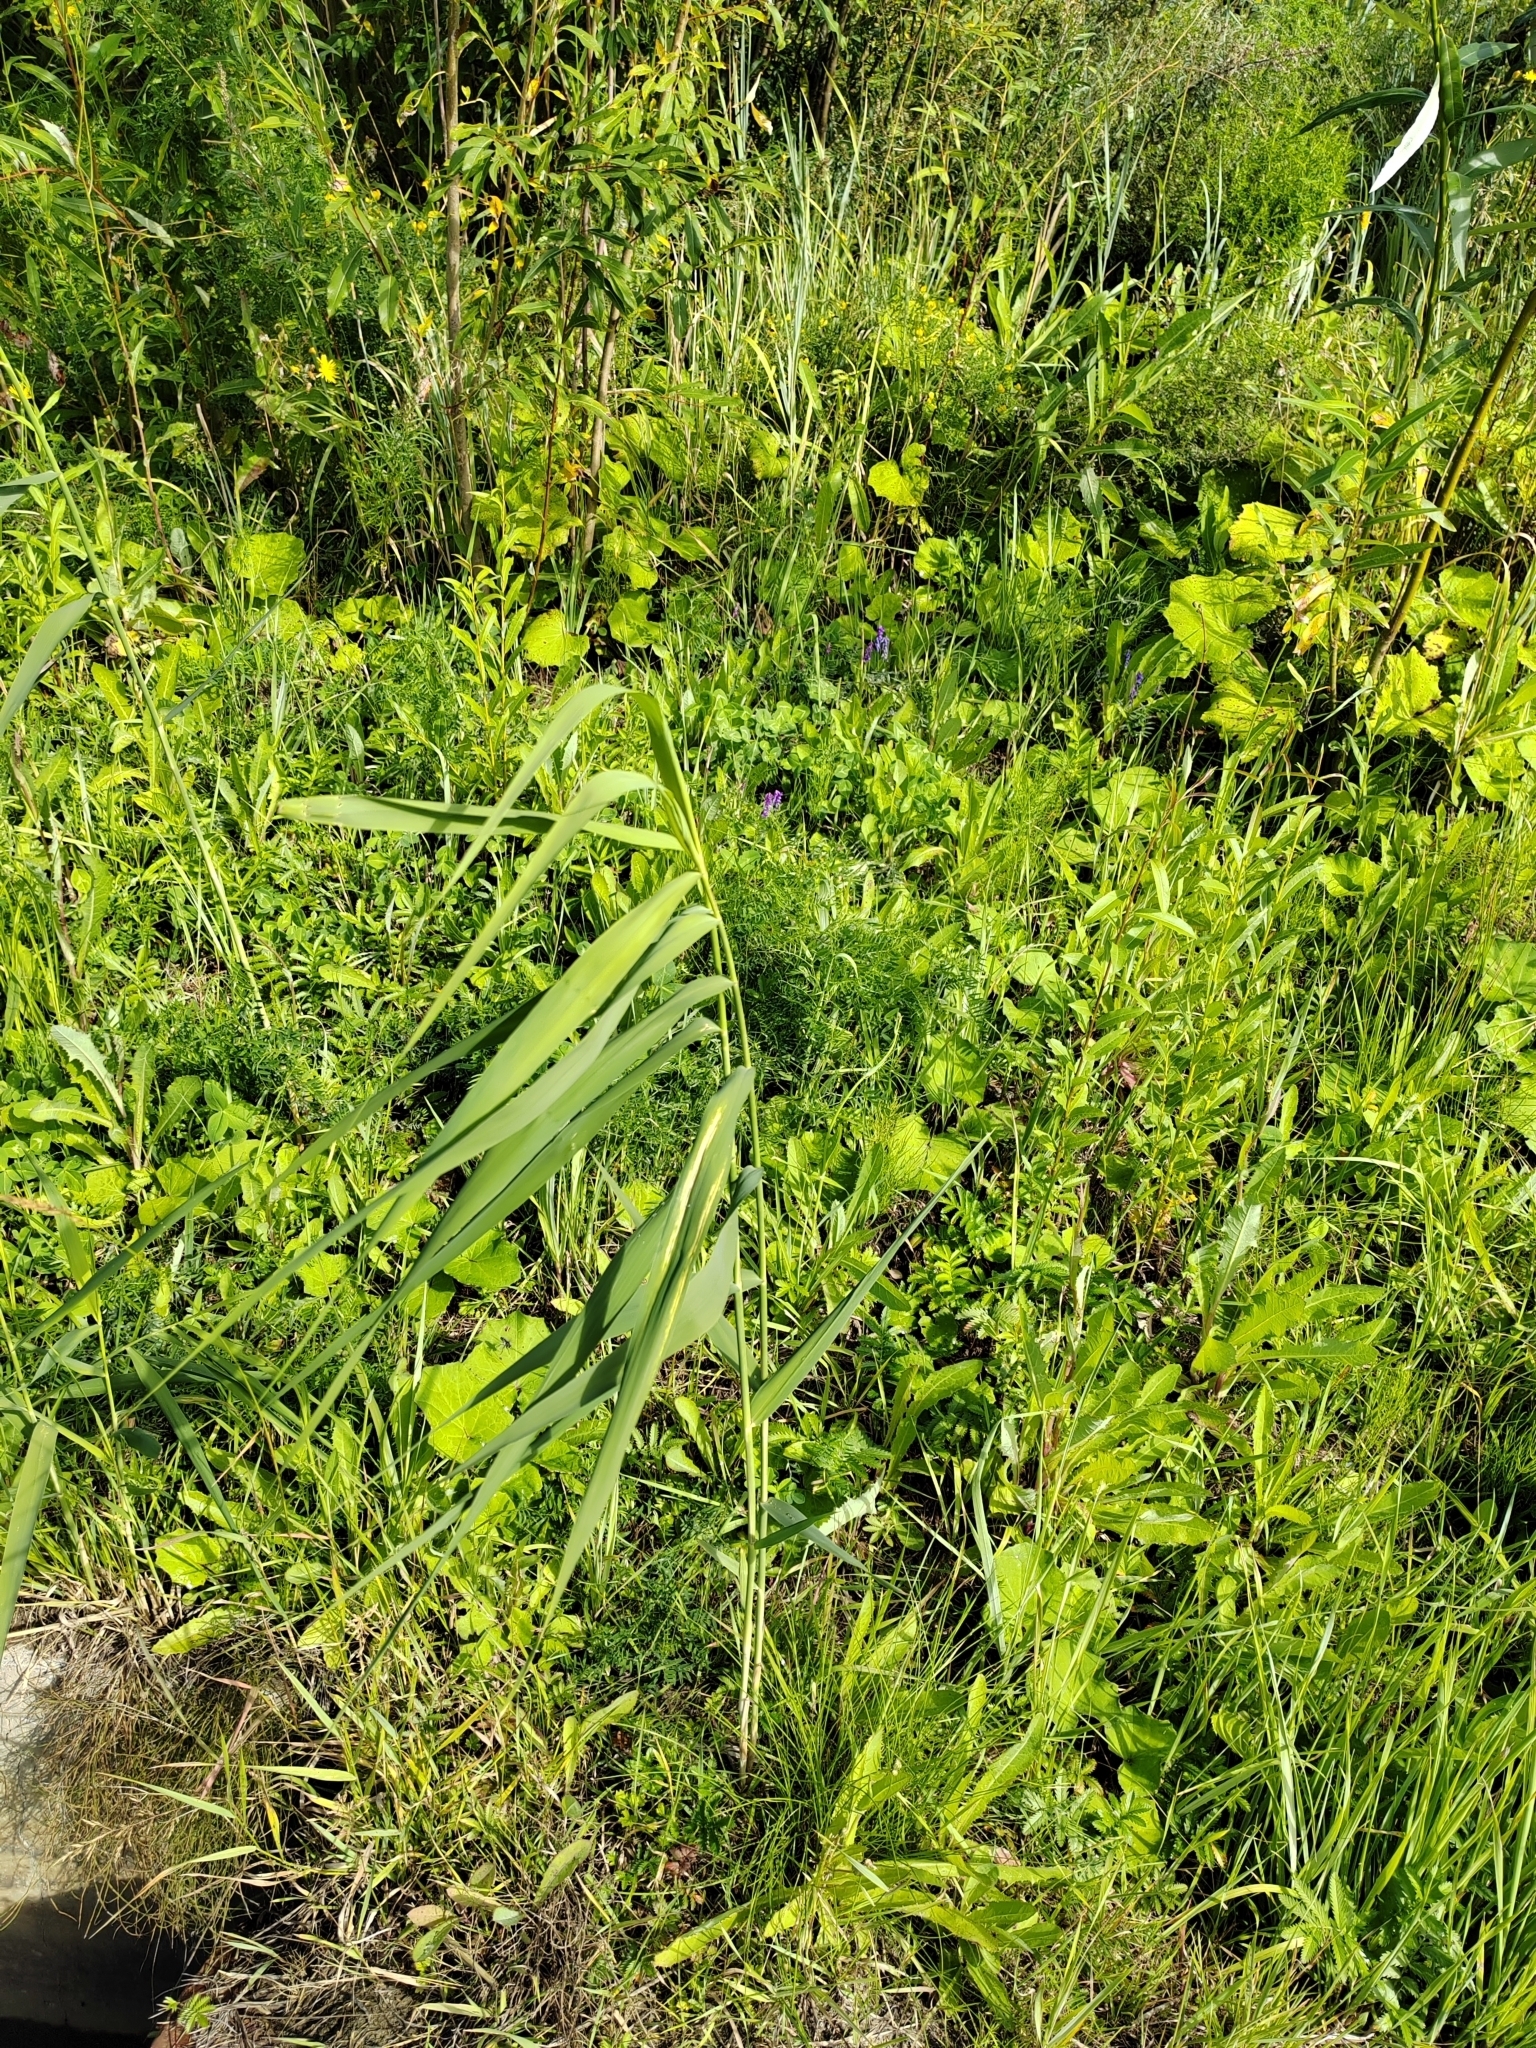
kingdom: Plantae
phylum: Tracheophyta
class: Liliopsida
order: Poales
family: Poaceae
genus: Phragmites
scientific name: Phragmites australis
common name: Common reed
